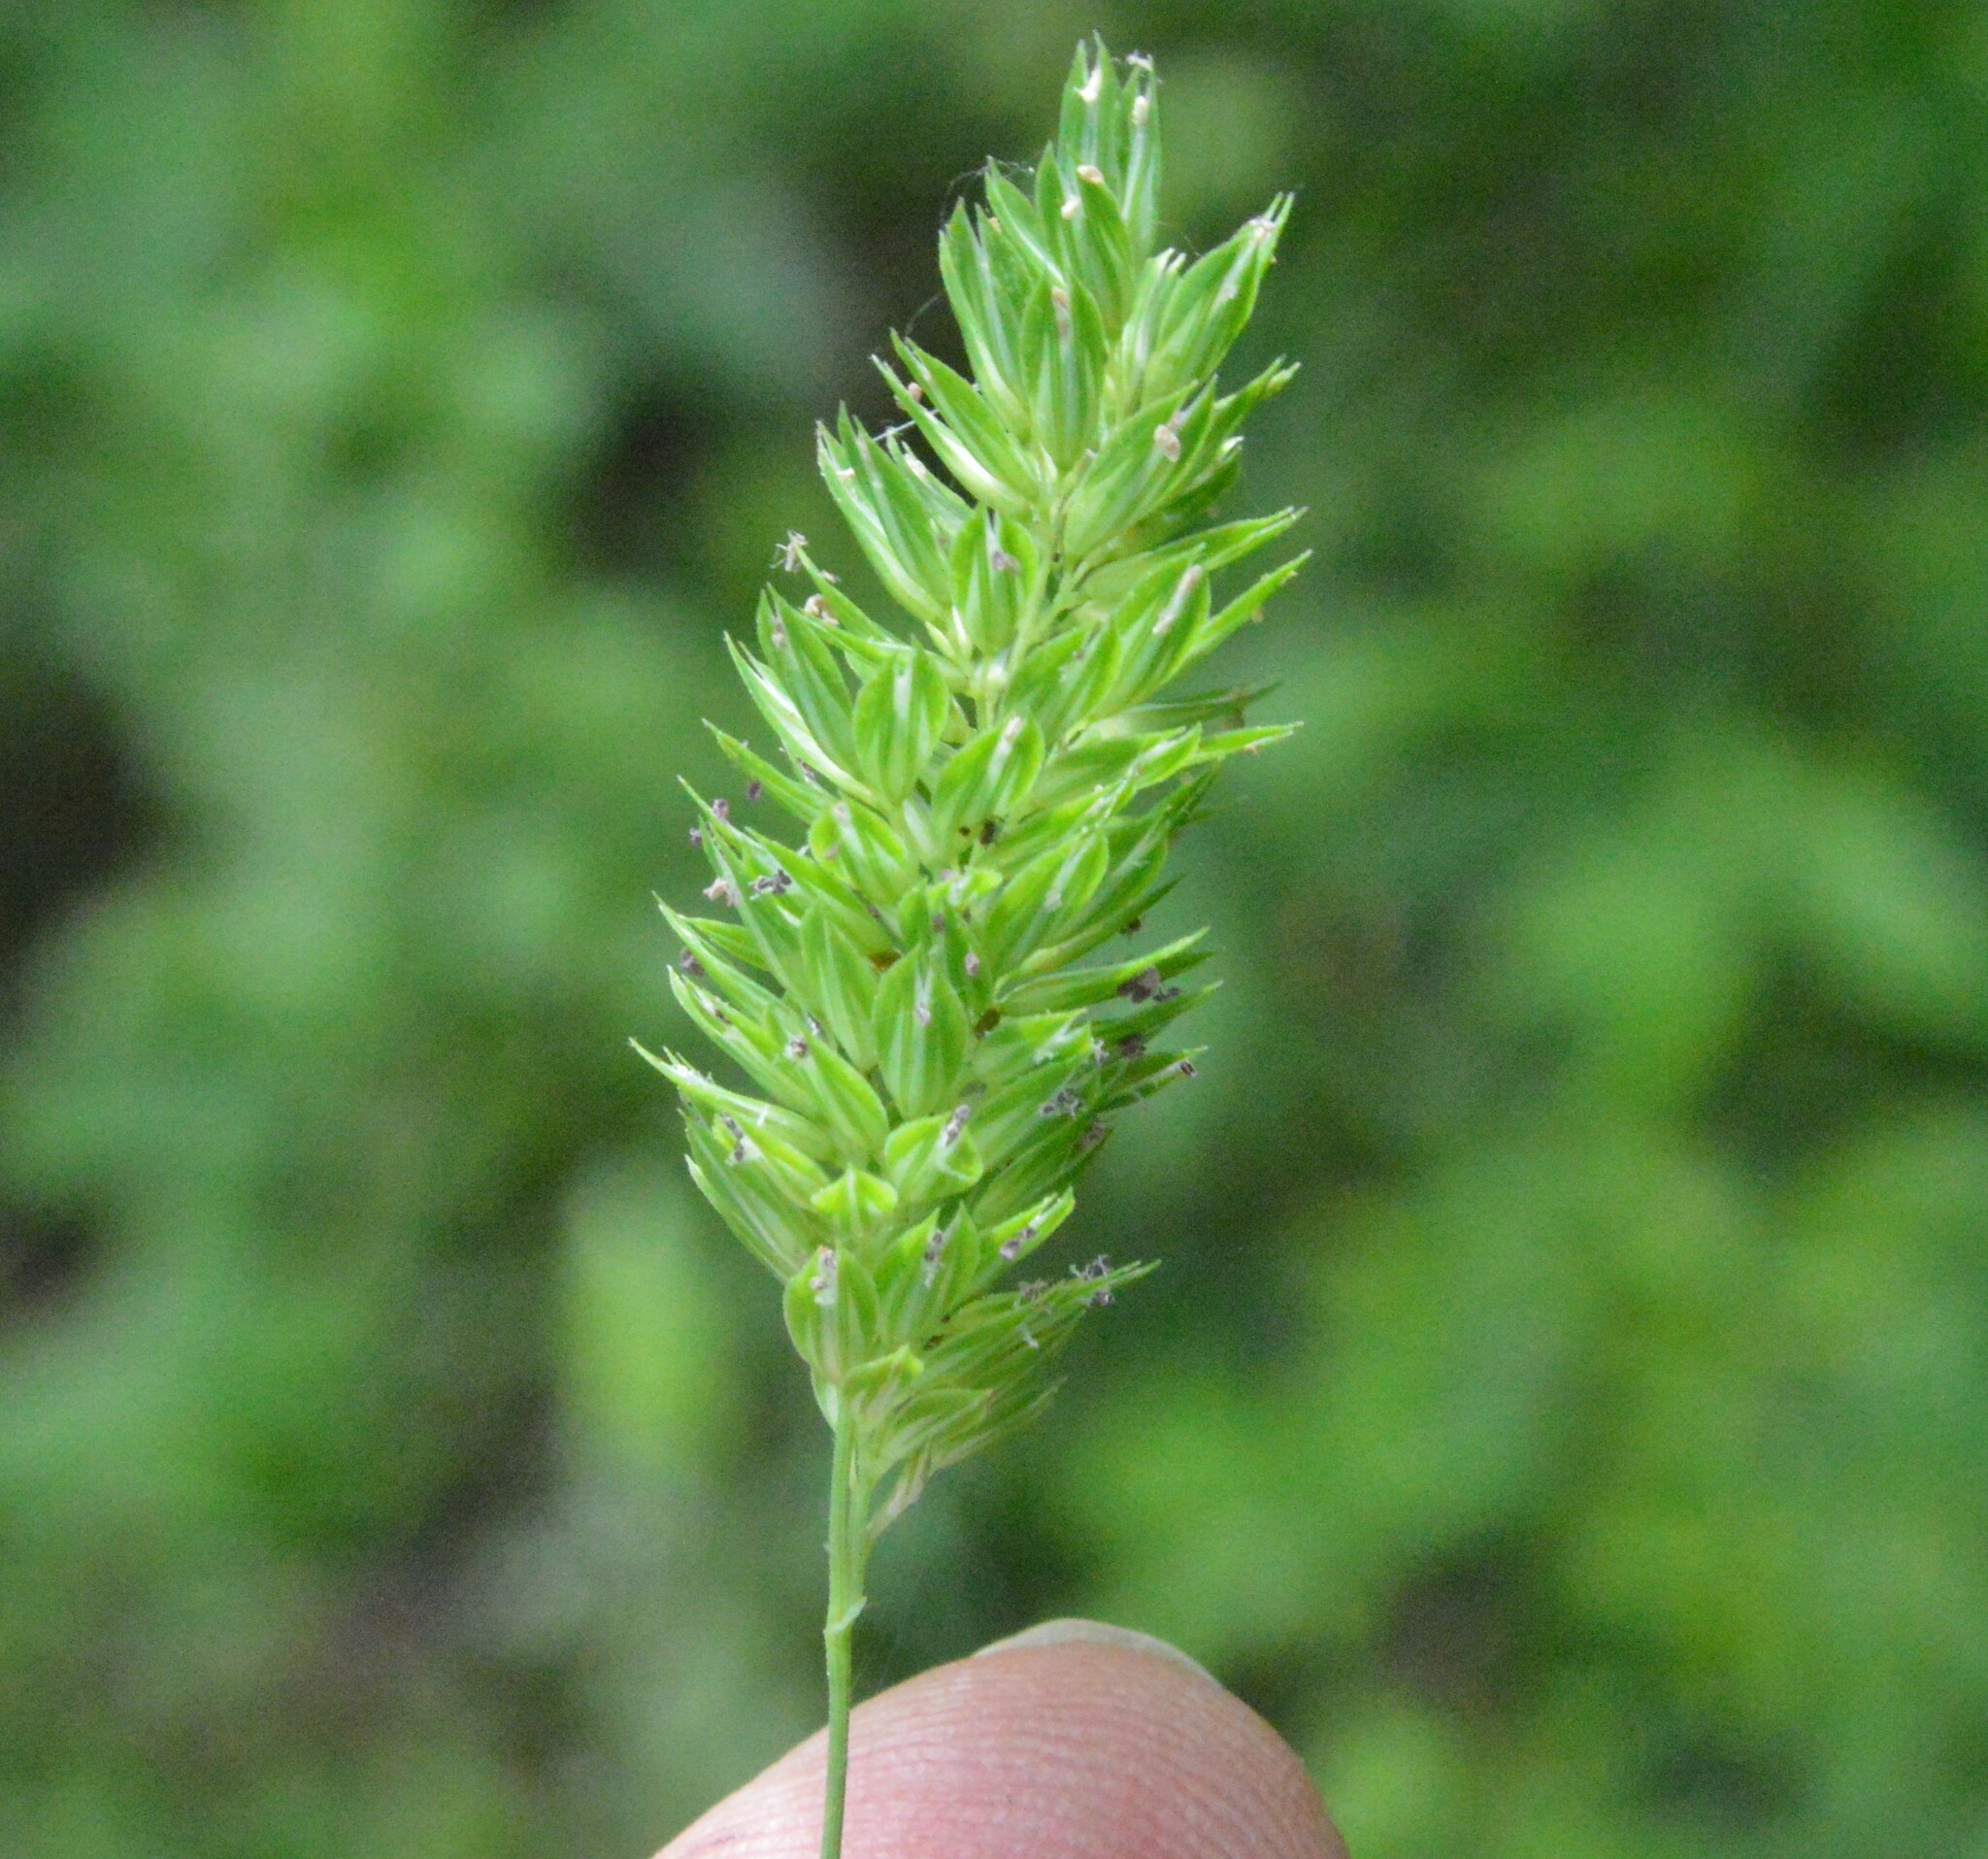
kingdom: Plantae
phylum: Tracheophyta
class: Liliopsida
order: Poales
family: Poaceae
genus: Phalaris
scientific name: Phalaris caroliniana
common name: May grass
